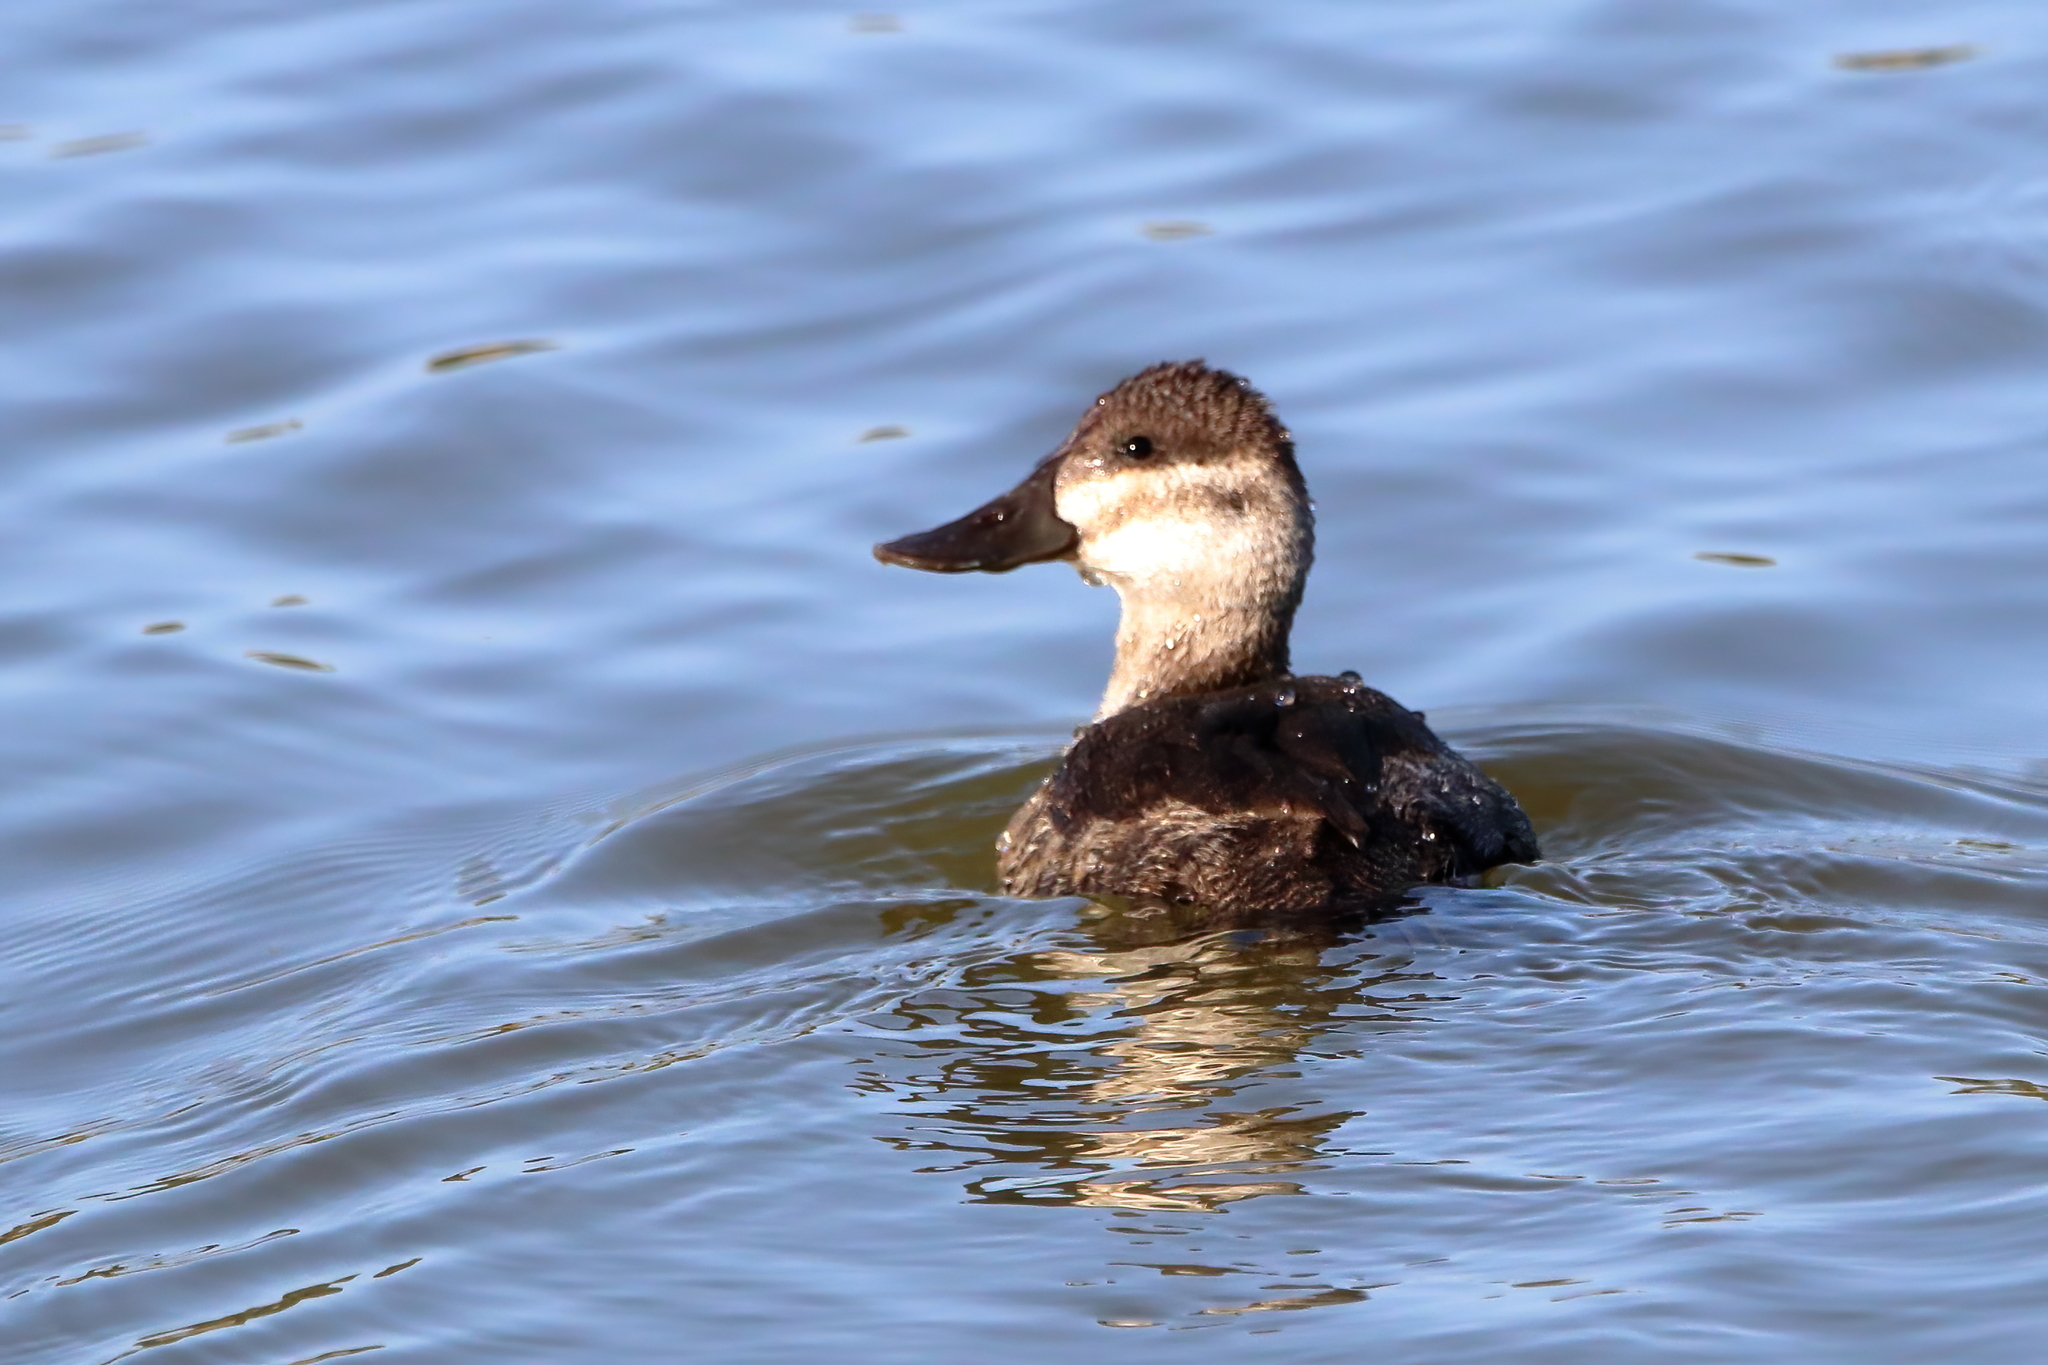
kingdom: Animalia
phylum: Chordata
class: Aves
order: Anseriformes
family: Anatidae
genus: Oxyura
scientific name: Oxyura jamaicensis
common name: Ruddy duck
